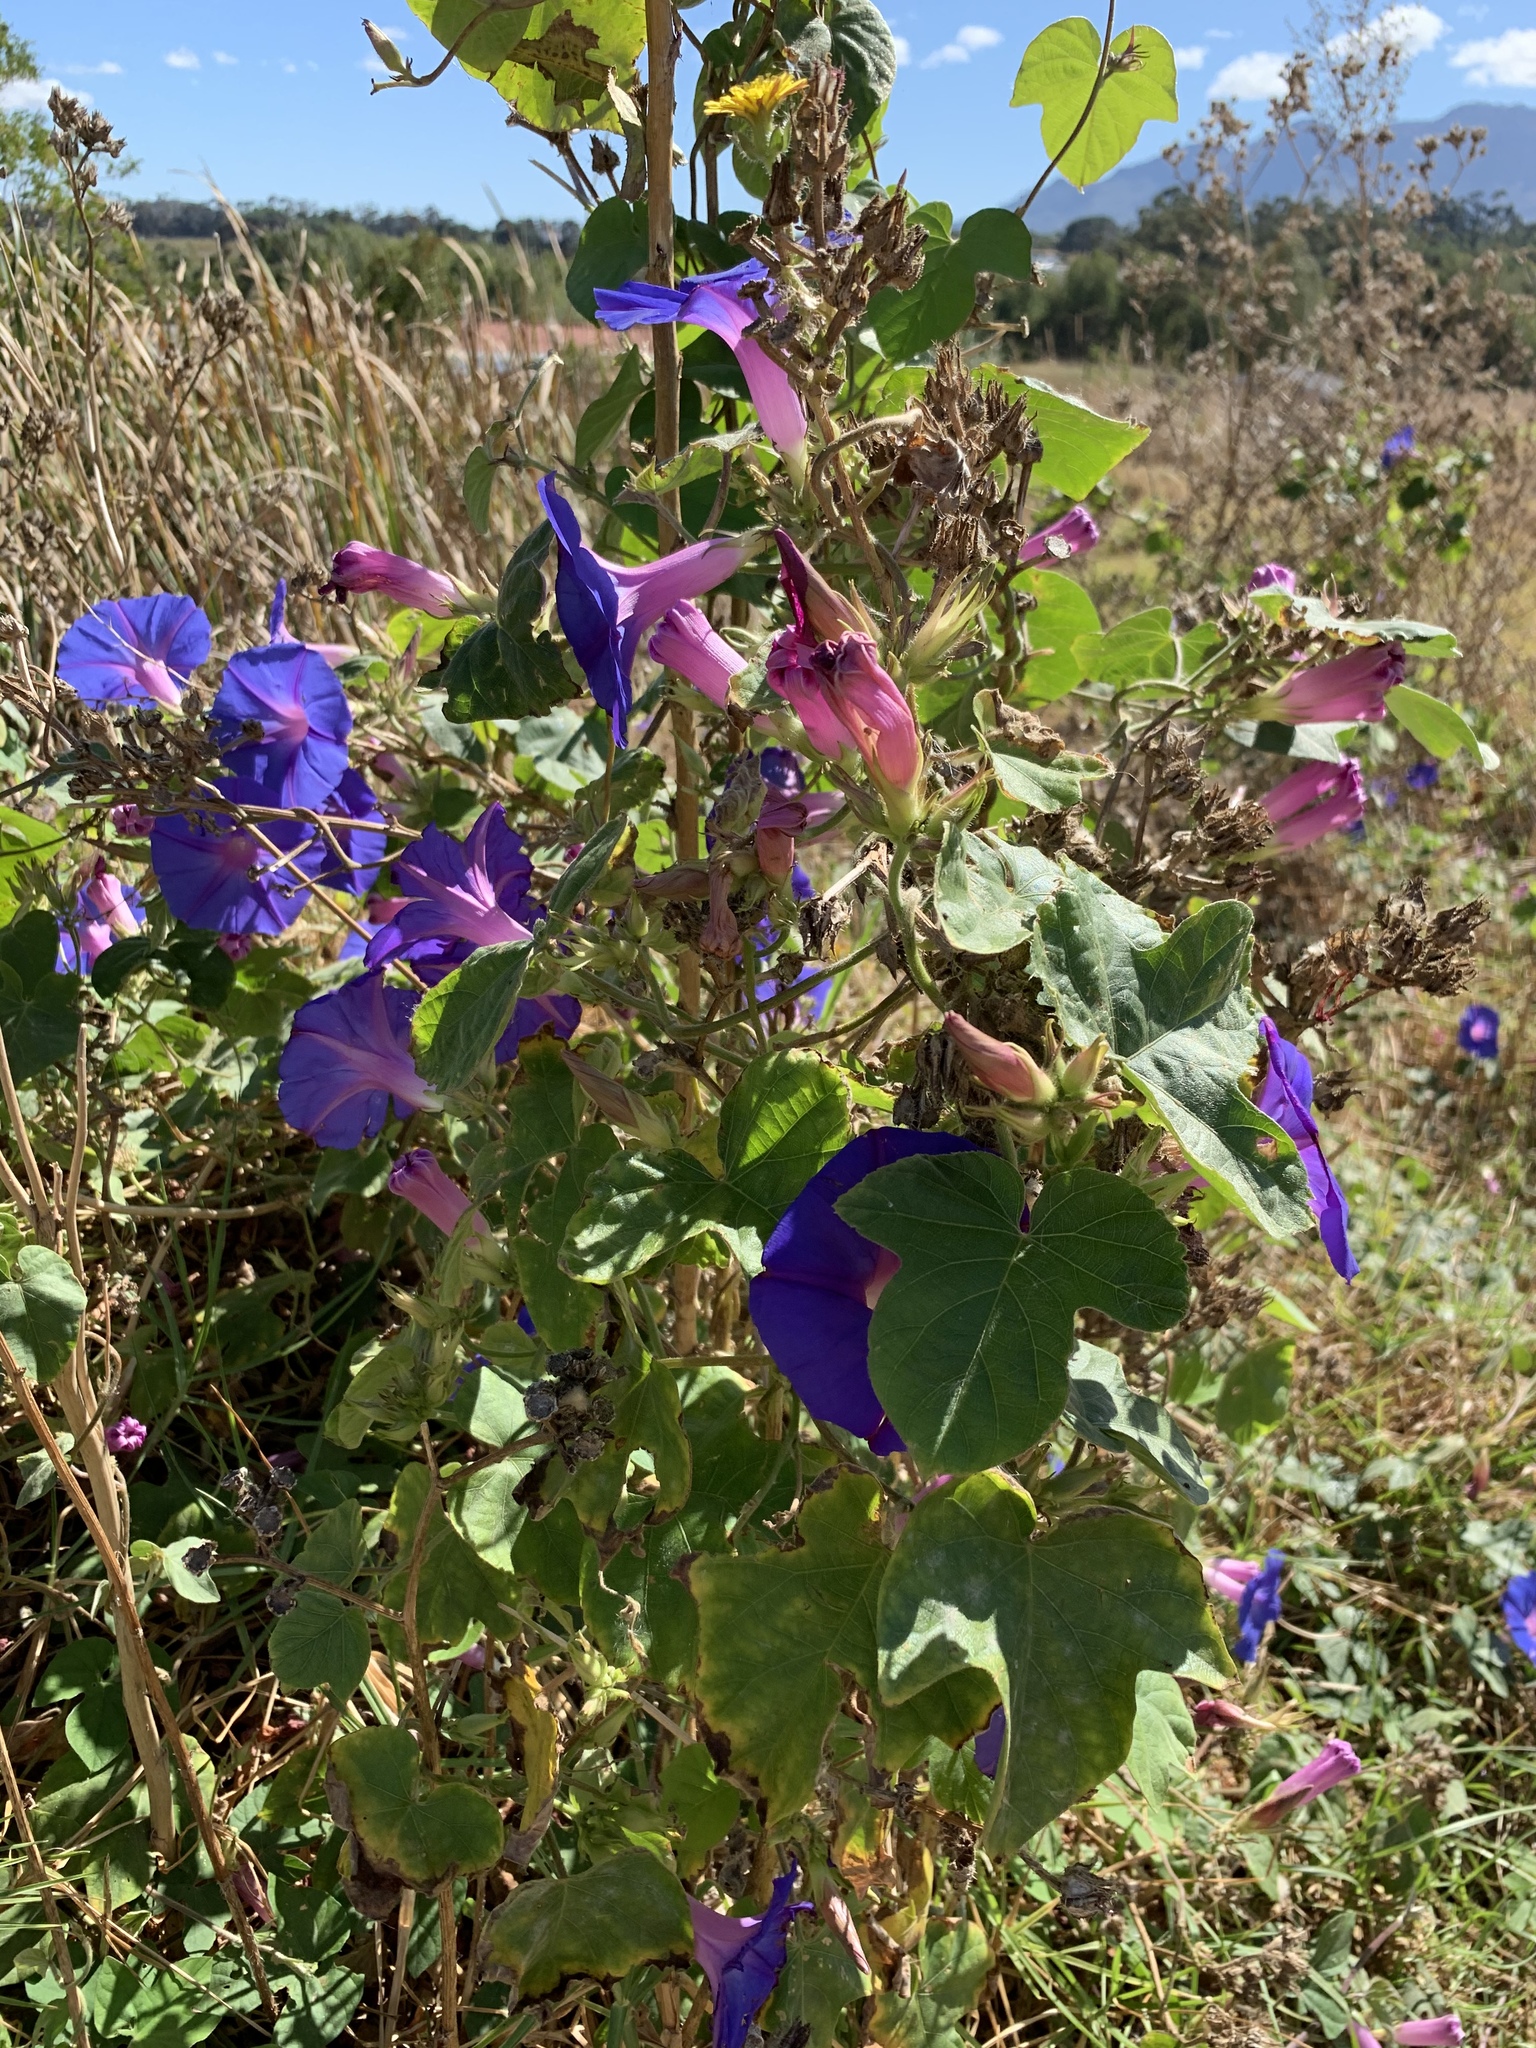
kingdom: Plantae
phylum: Tracheophyta
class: Magnoliopsida
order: Solanales
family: Convolvulaceae
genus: Ipomoea
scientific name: Ipomoea indica
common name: Blue dawnflower
